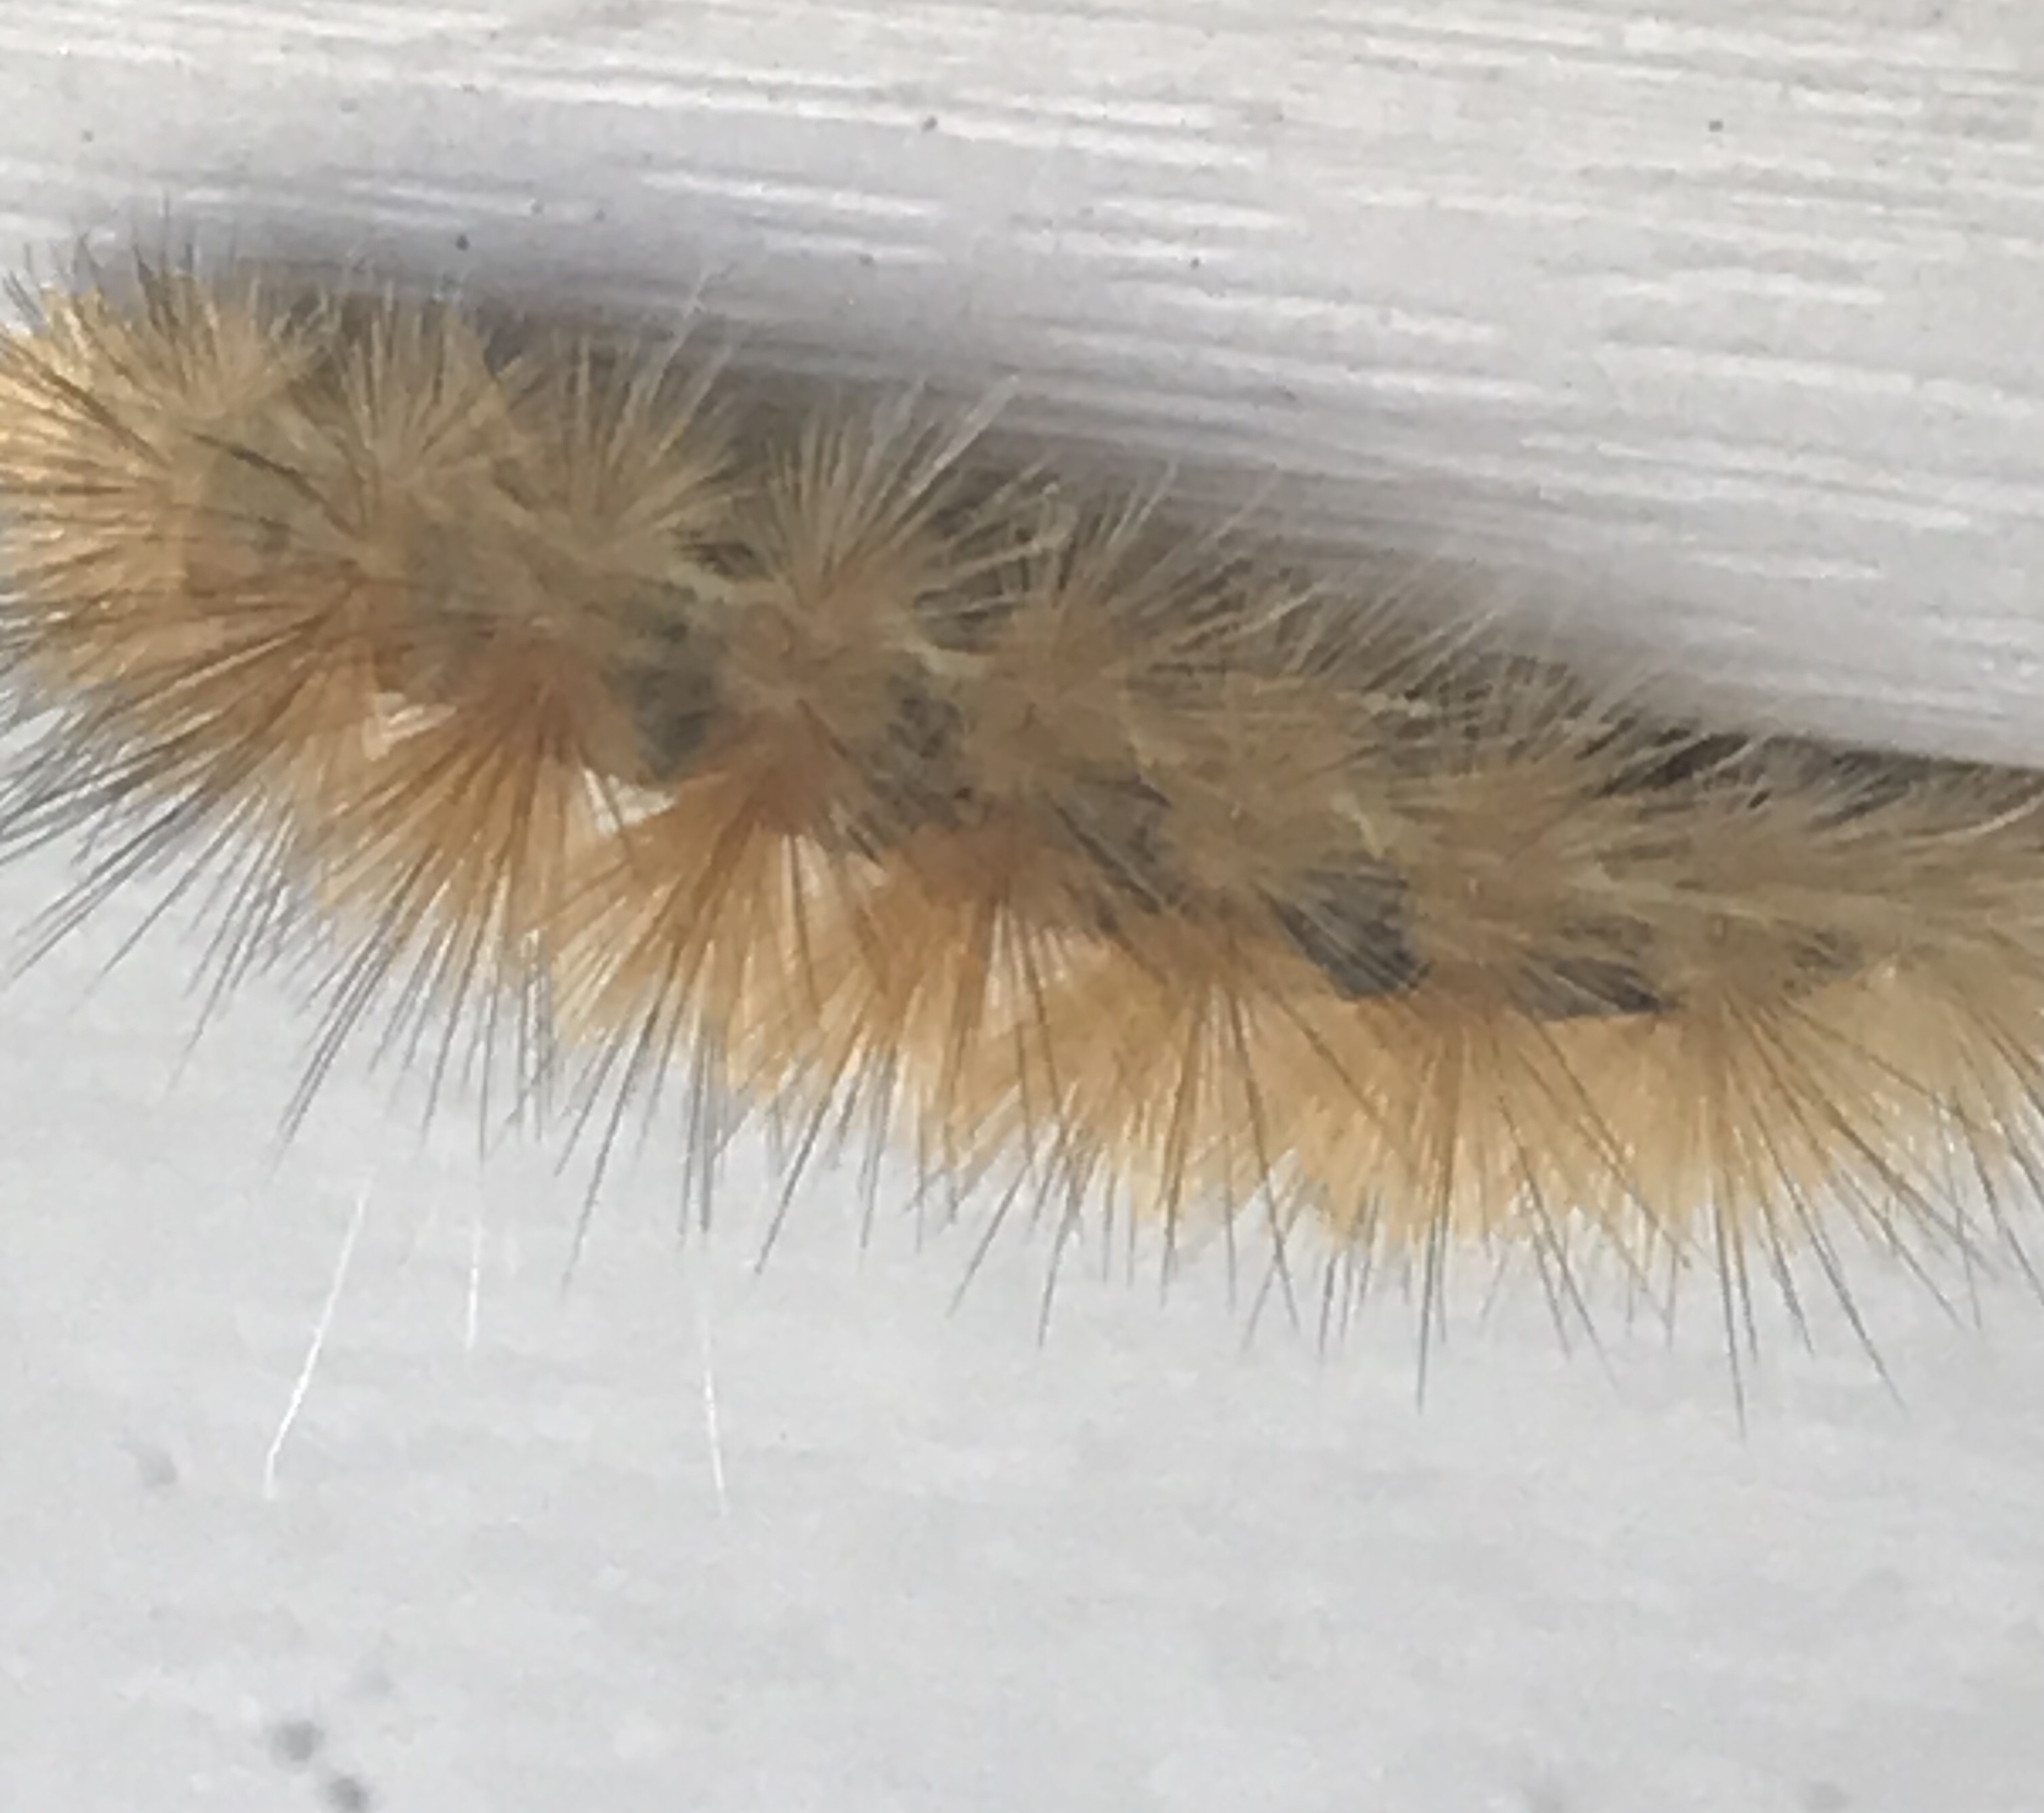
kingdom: Animalia
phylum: Arthropoda
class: Insecta
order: Lepidoptera
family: Erebidae
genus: Spilosoma
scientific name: Spilosoma virginica
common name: Virginia tiger moth
